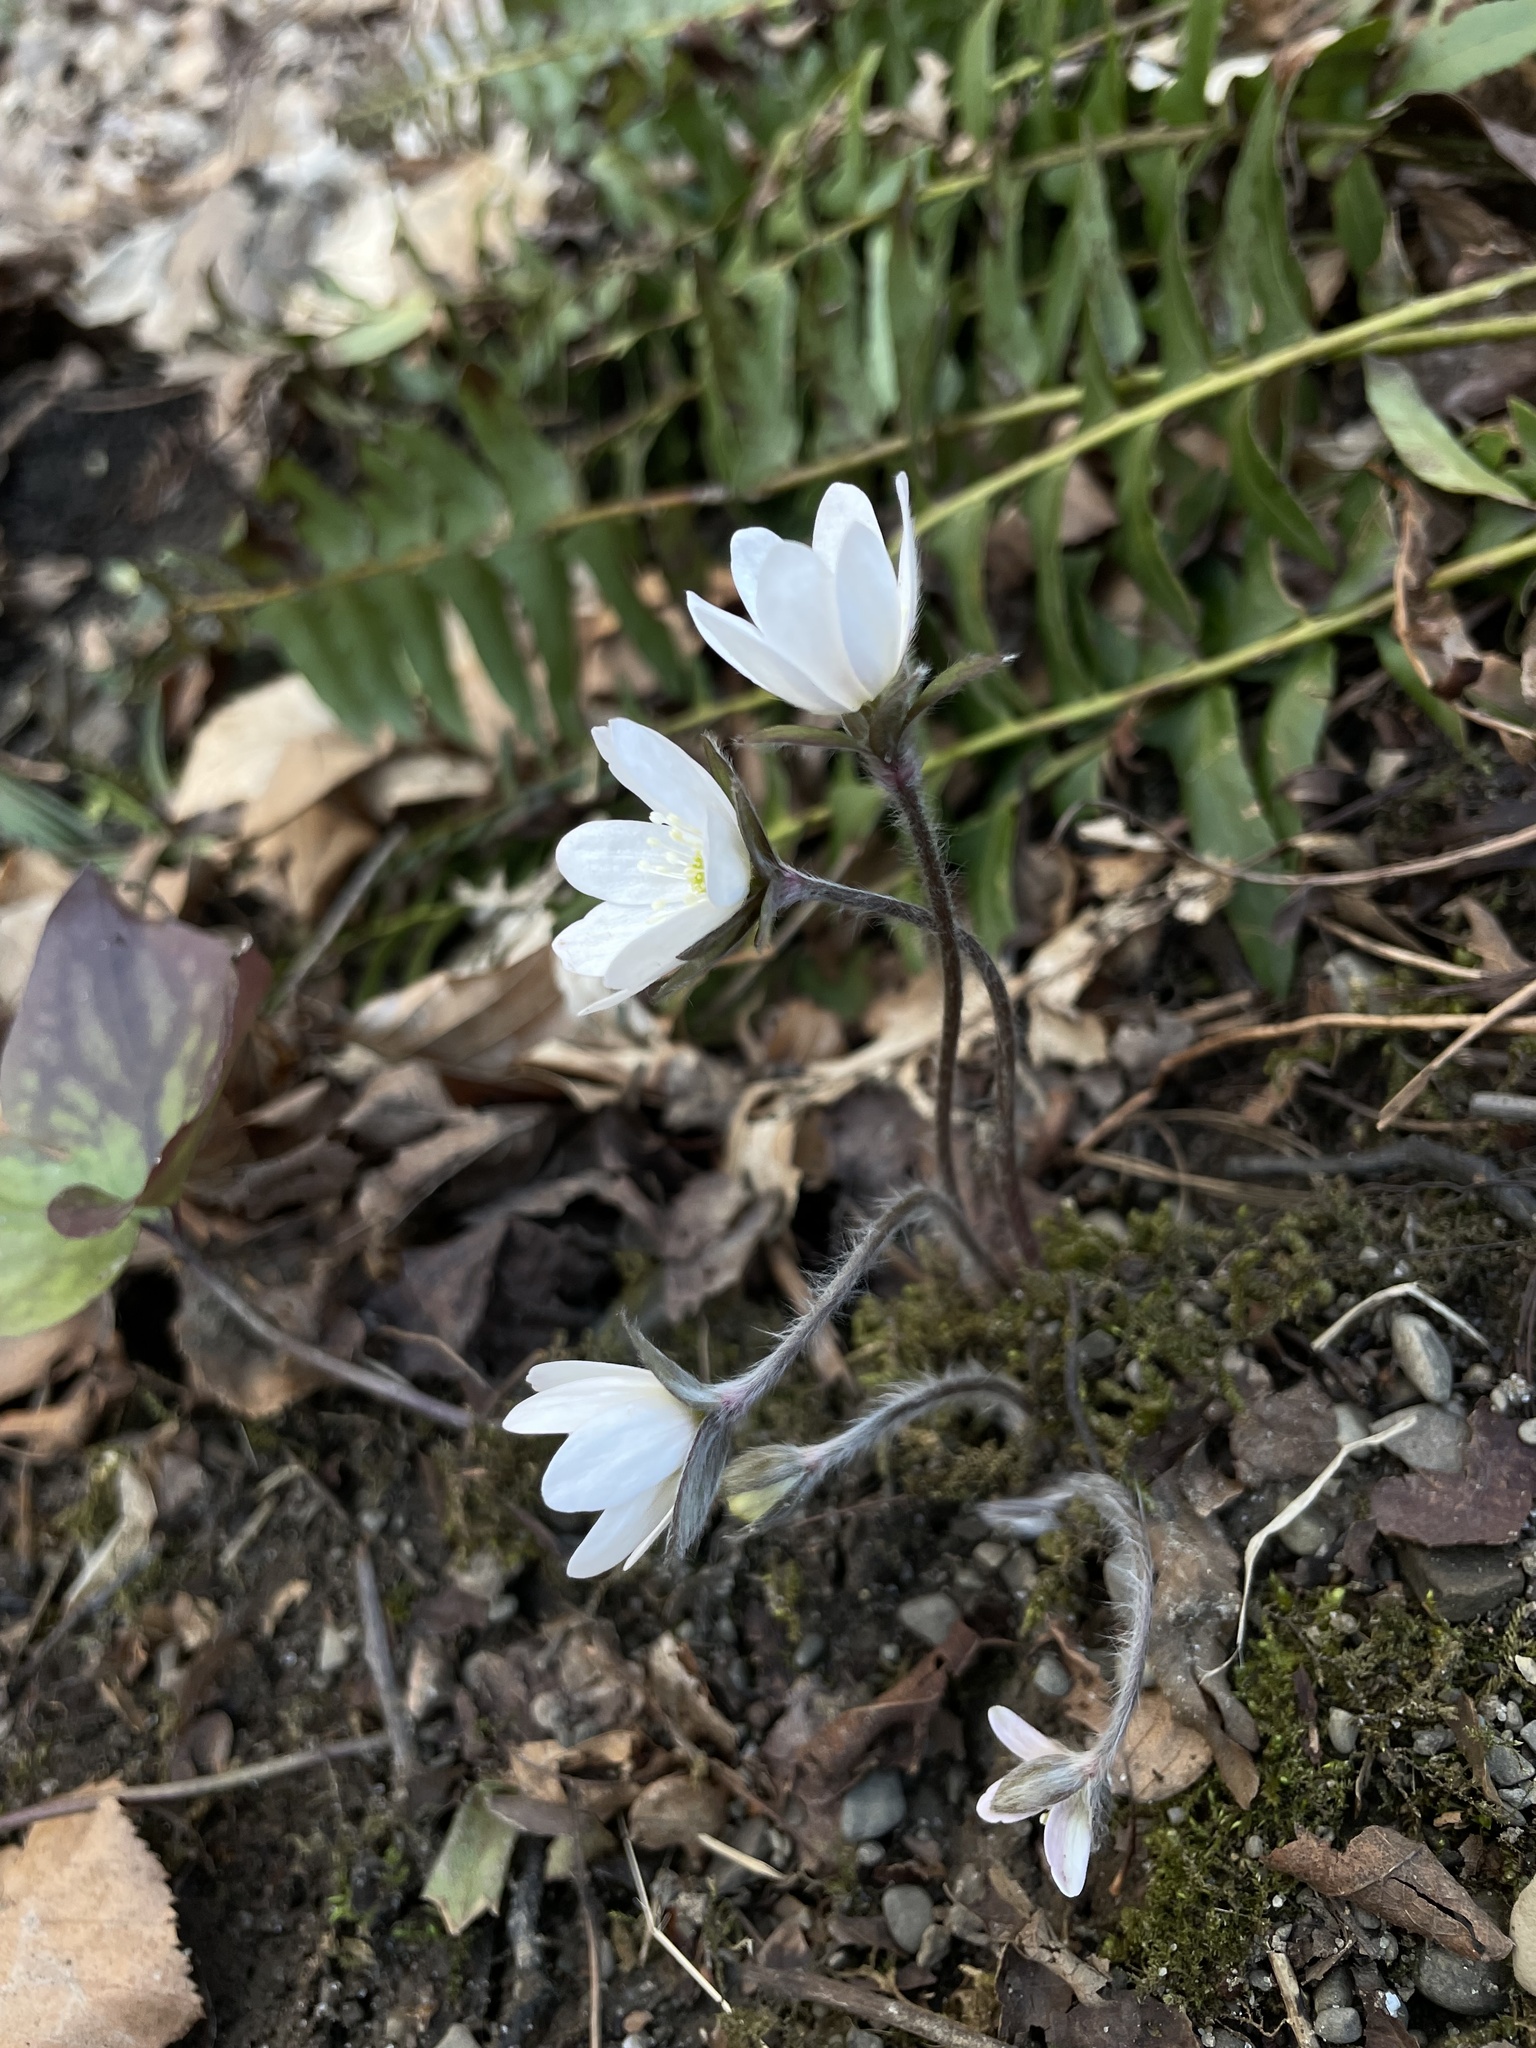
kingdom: Plantae
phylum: Tracheophyta
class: Magnoliopsida
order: Ranunculales
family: Ranunculaceae
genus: Hepatica
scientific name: Hepatica acutiloba
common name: Sharp-lobed hepatica
